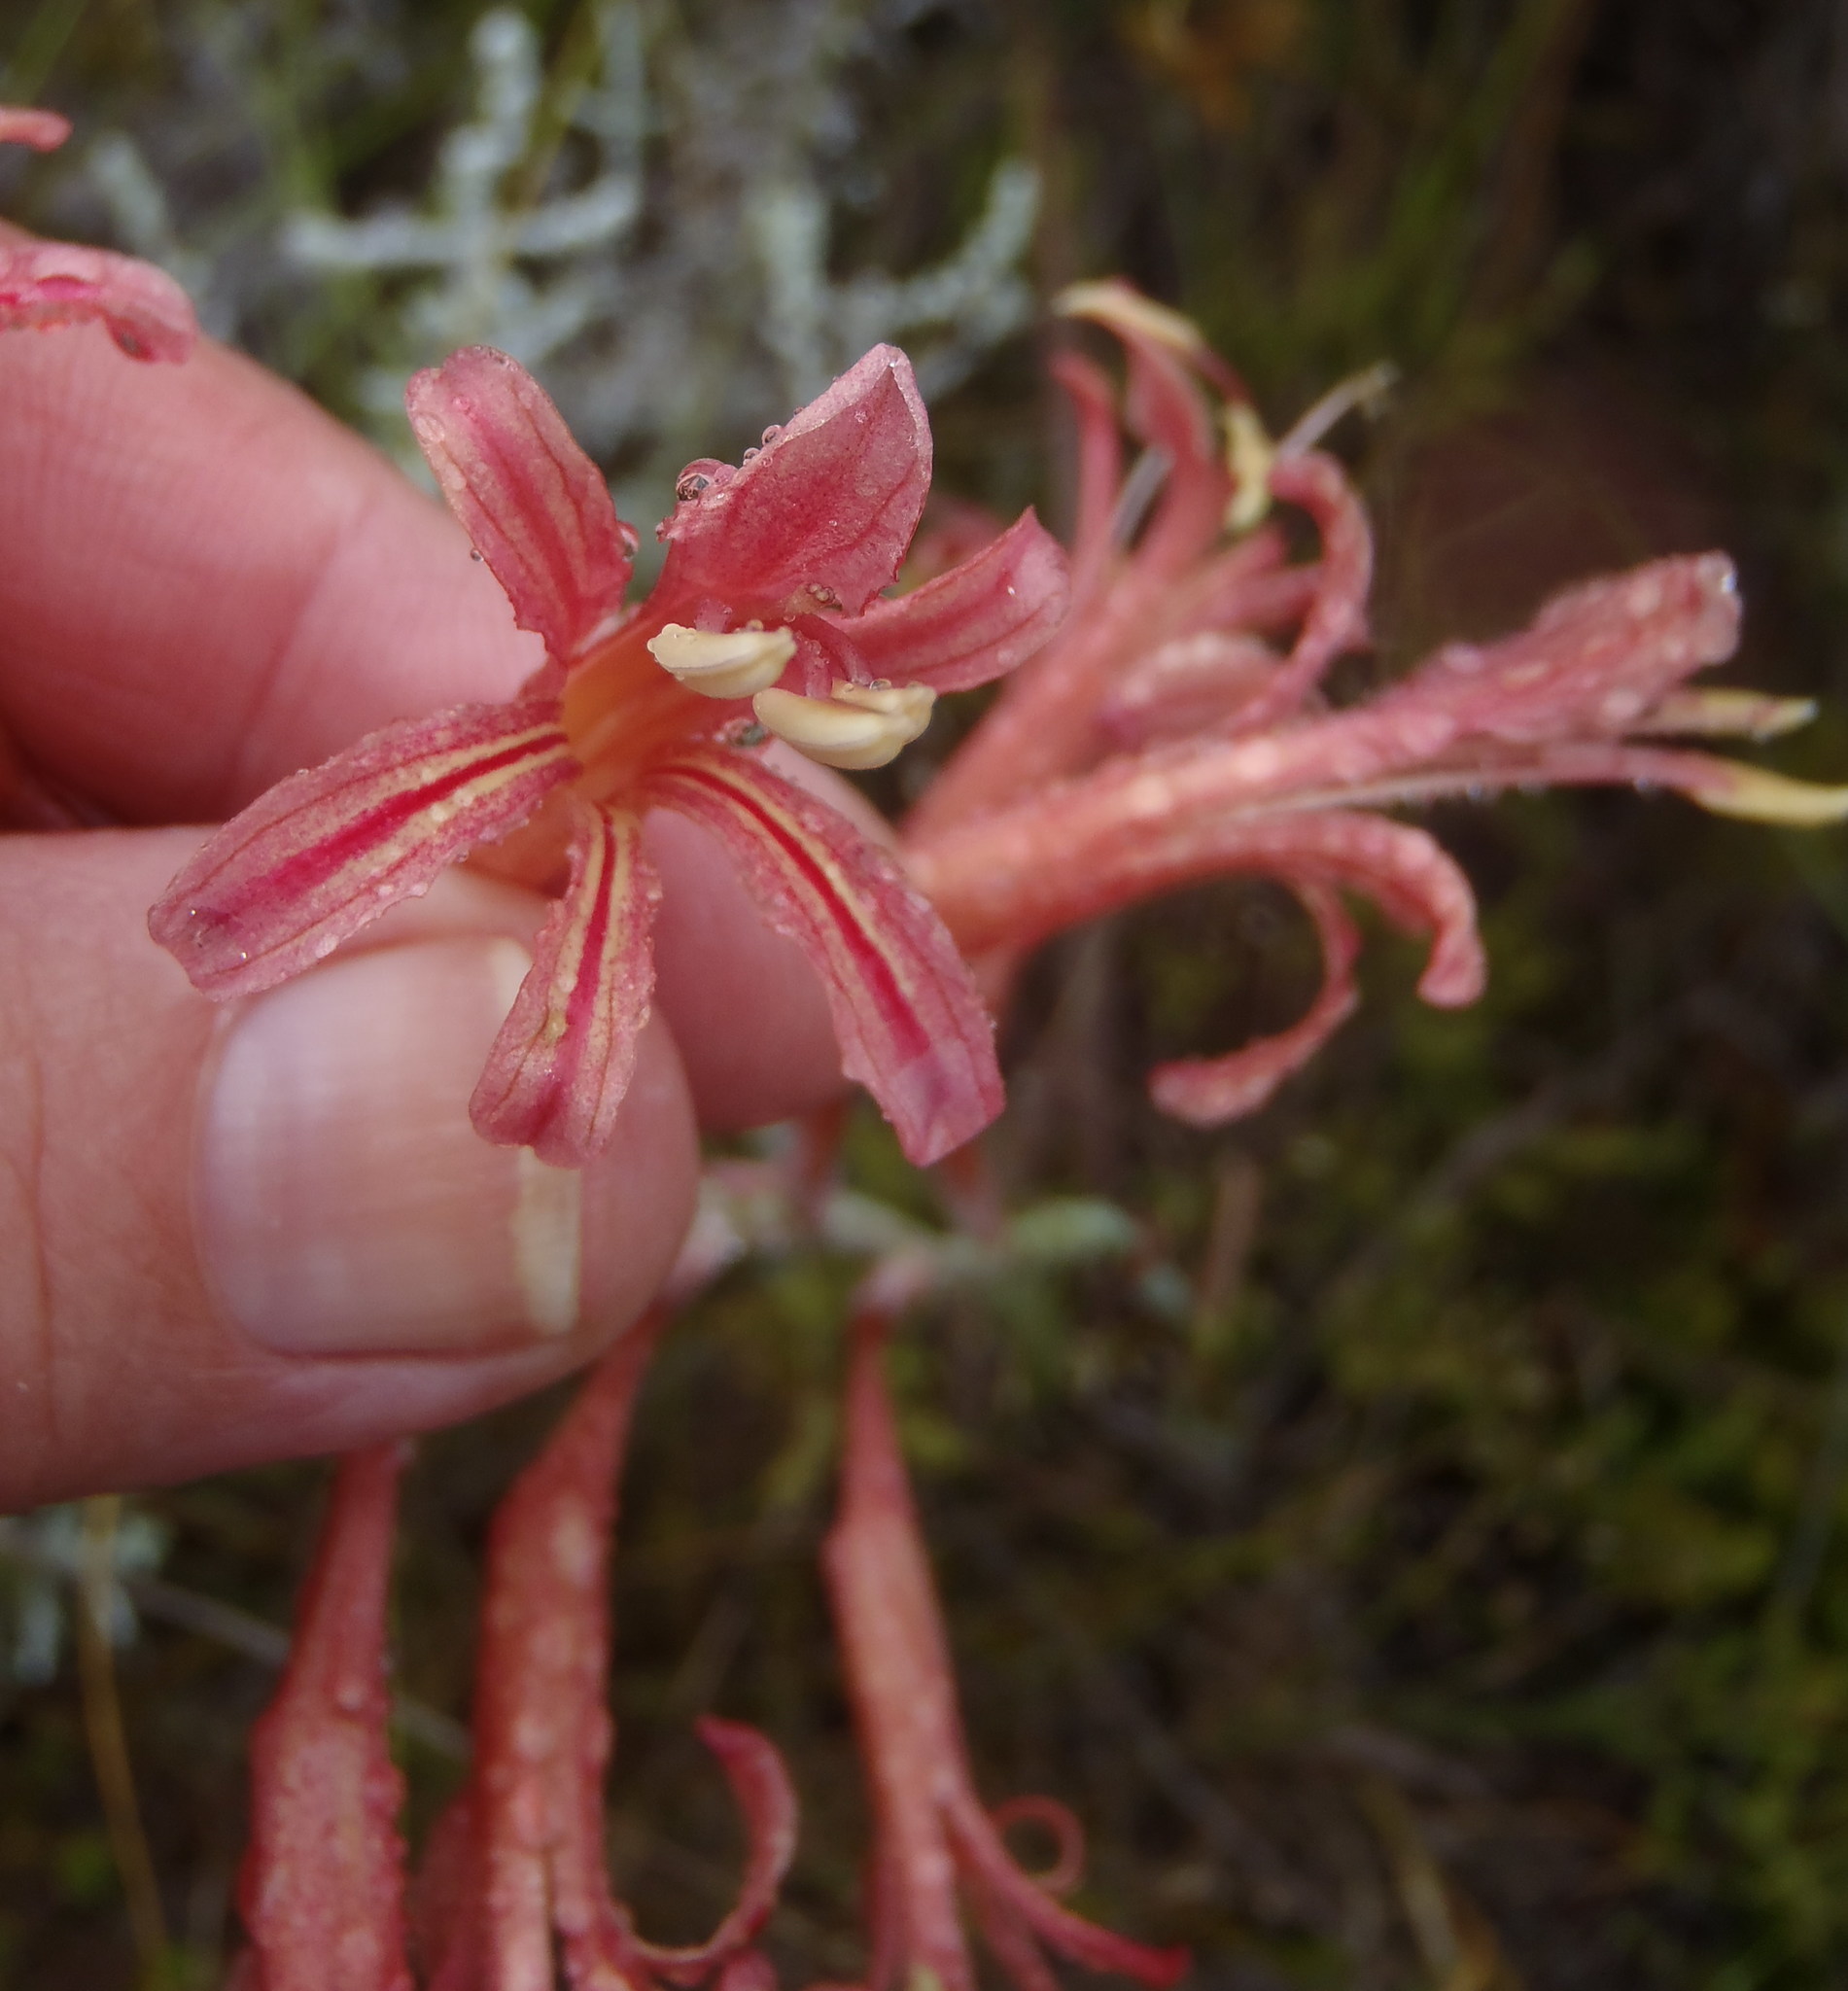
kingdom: Plantae
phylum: Tracheophyta
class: Liliopsida
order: Asparagales
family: Iridaceae
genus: Tritoniopsis
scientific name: Tritoniopsis antholyza
